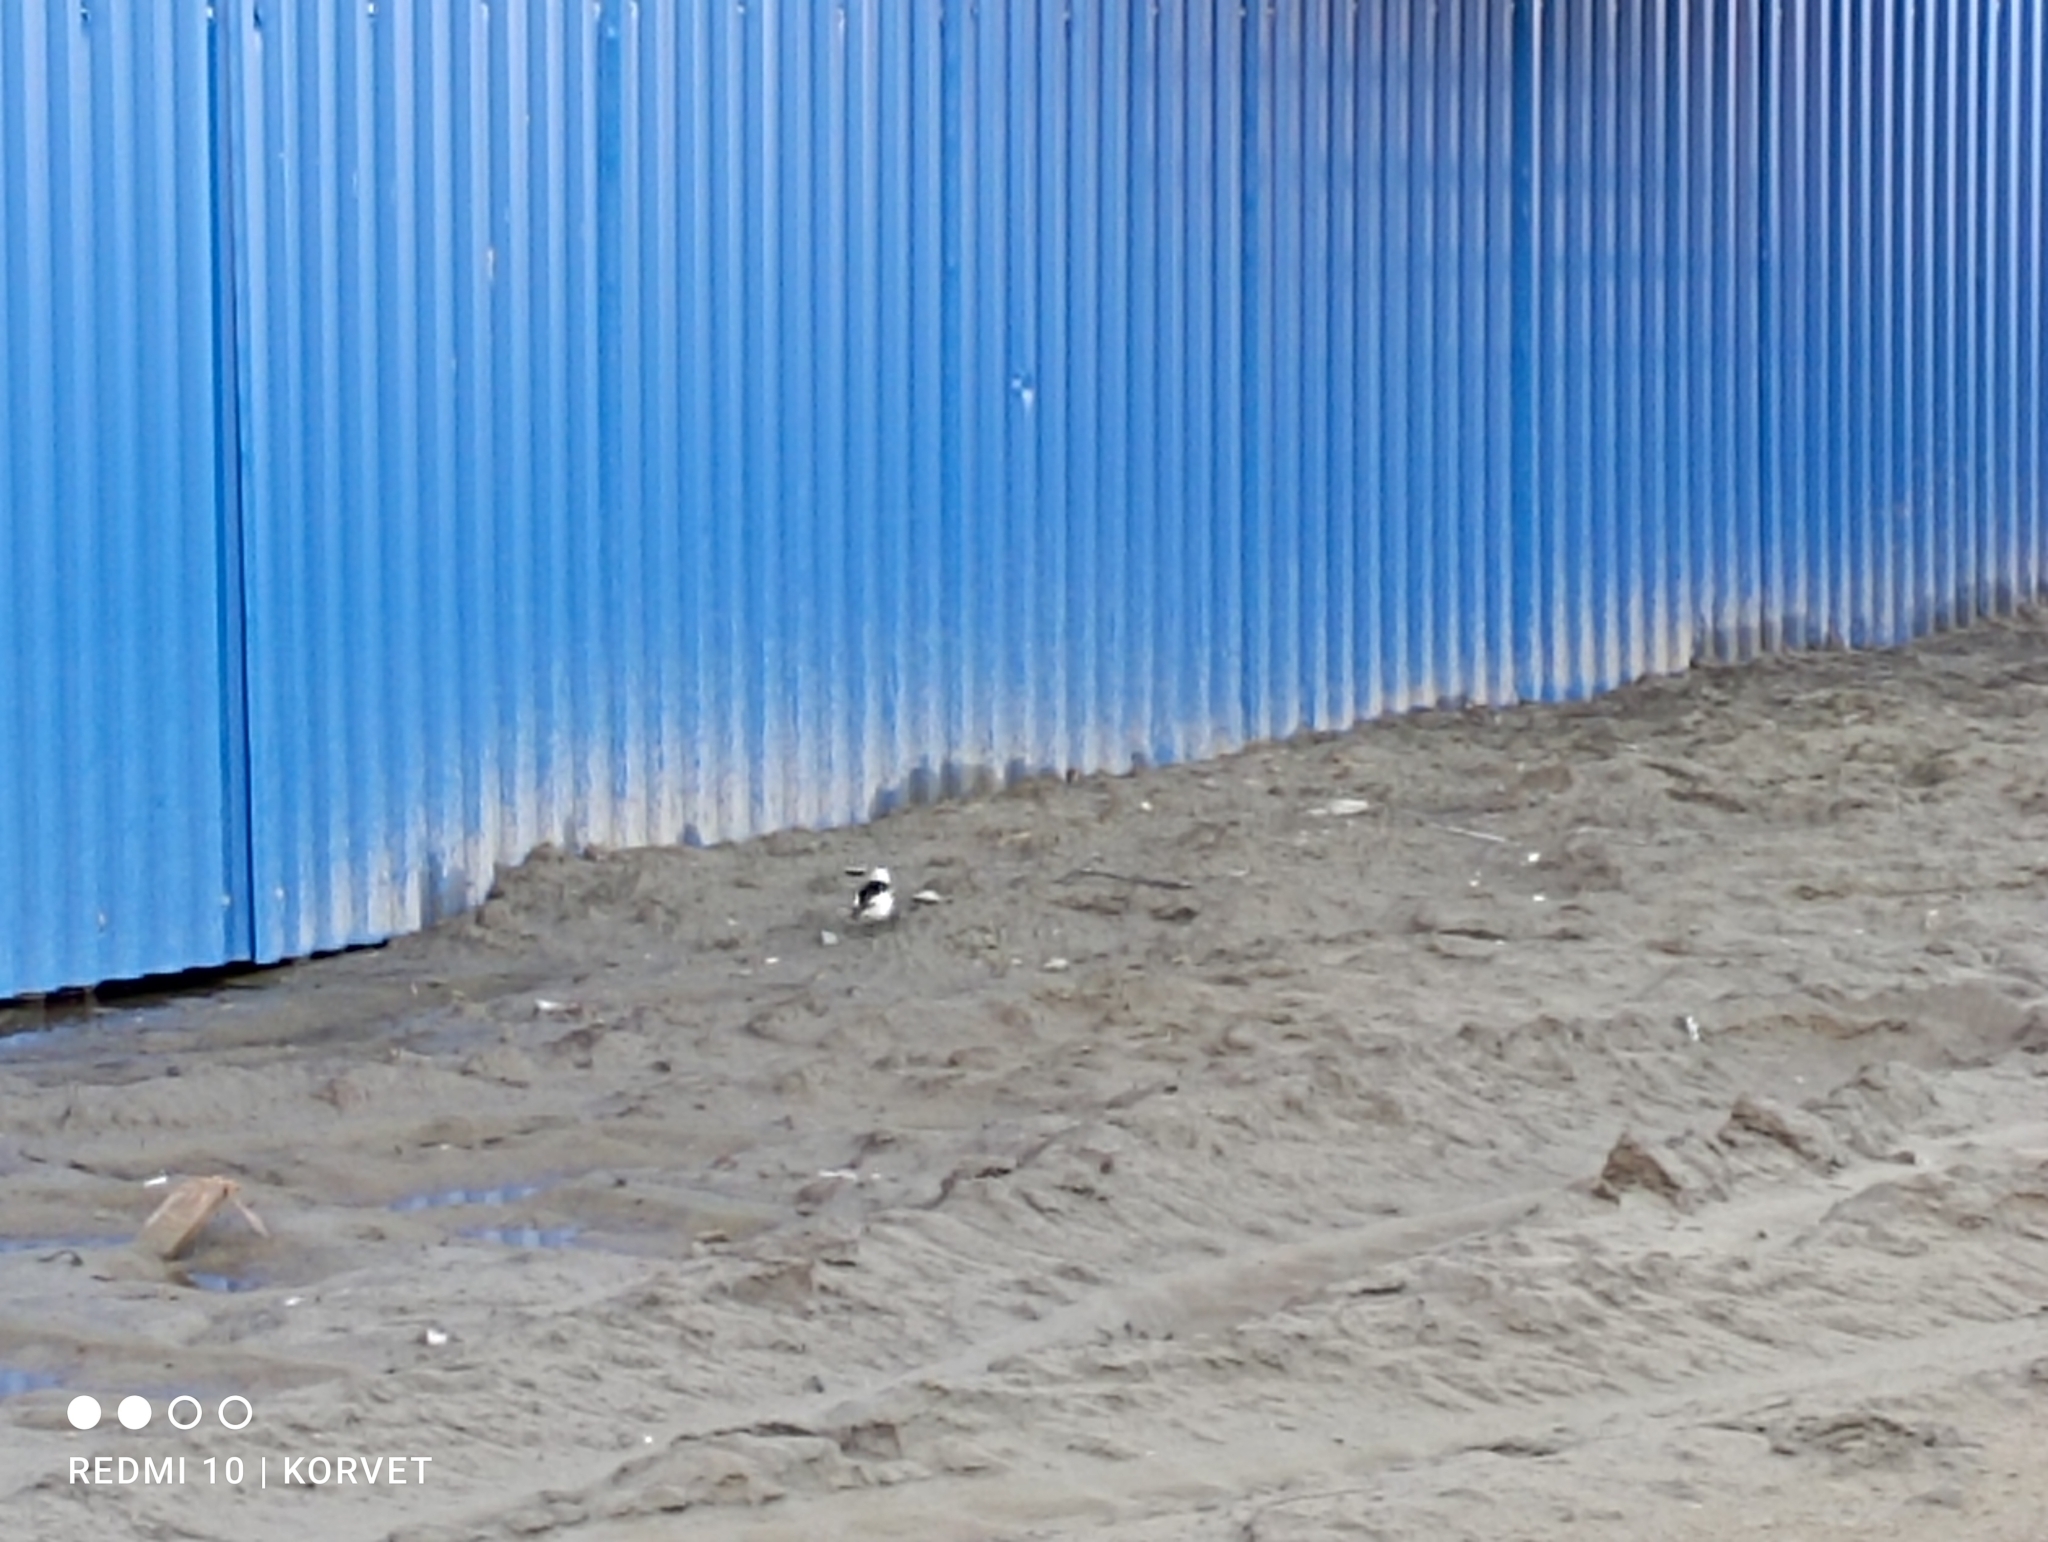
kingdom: Animalia
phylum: Chordata
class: Aves
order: Passeriformes
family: Calcariidae
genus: Plectrophenax
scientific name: Plectrophenax nivalis
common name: Snow bunting
